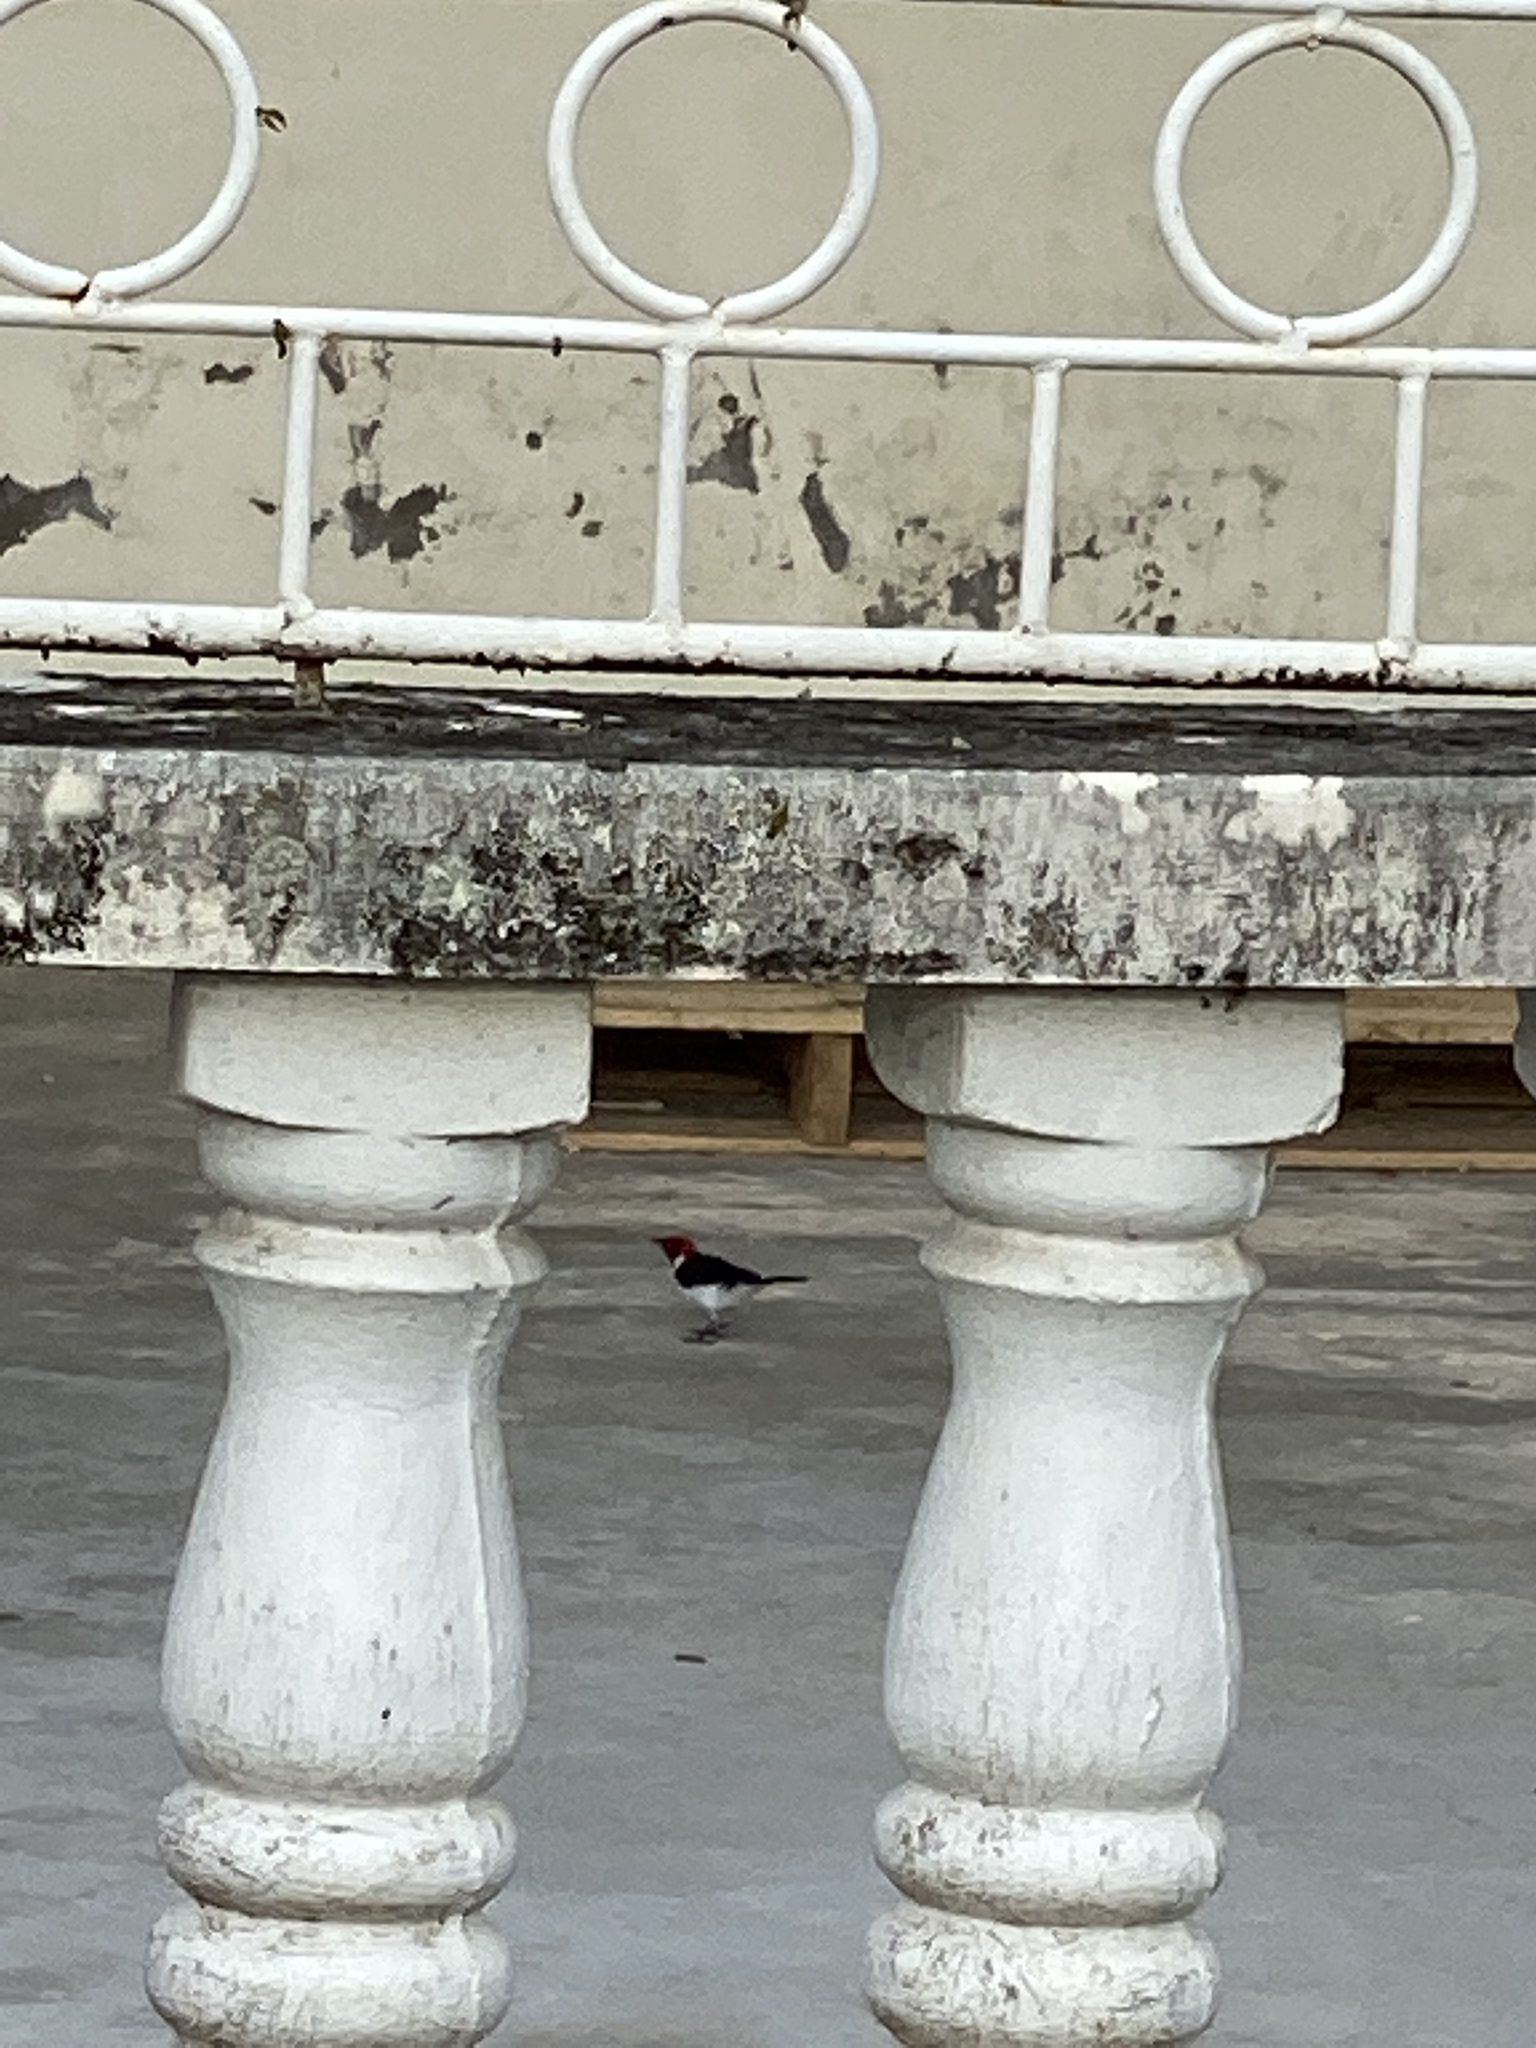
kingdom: Animalia
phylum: Chordata
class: Aves
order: Passeriformes
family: Thraupidae
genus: Paroaria
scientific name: Paroaria gularis
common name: Red-capped cardinal
